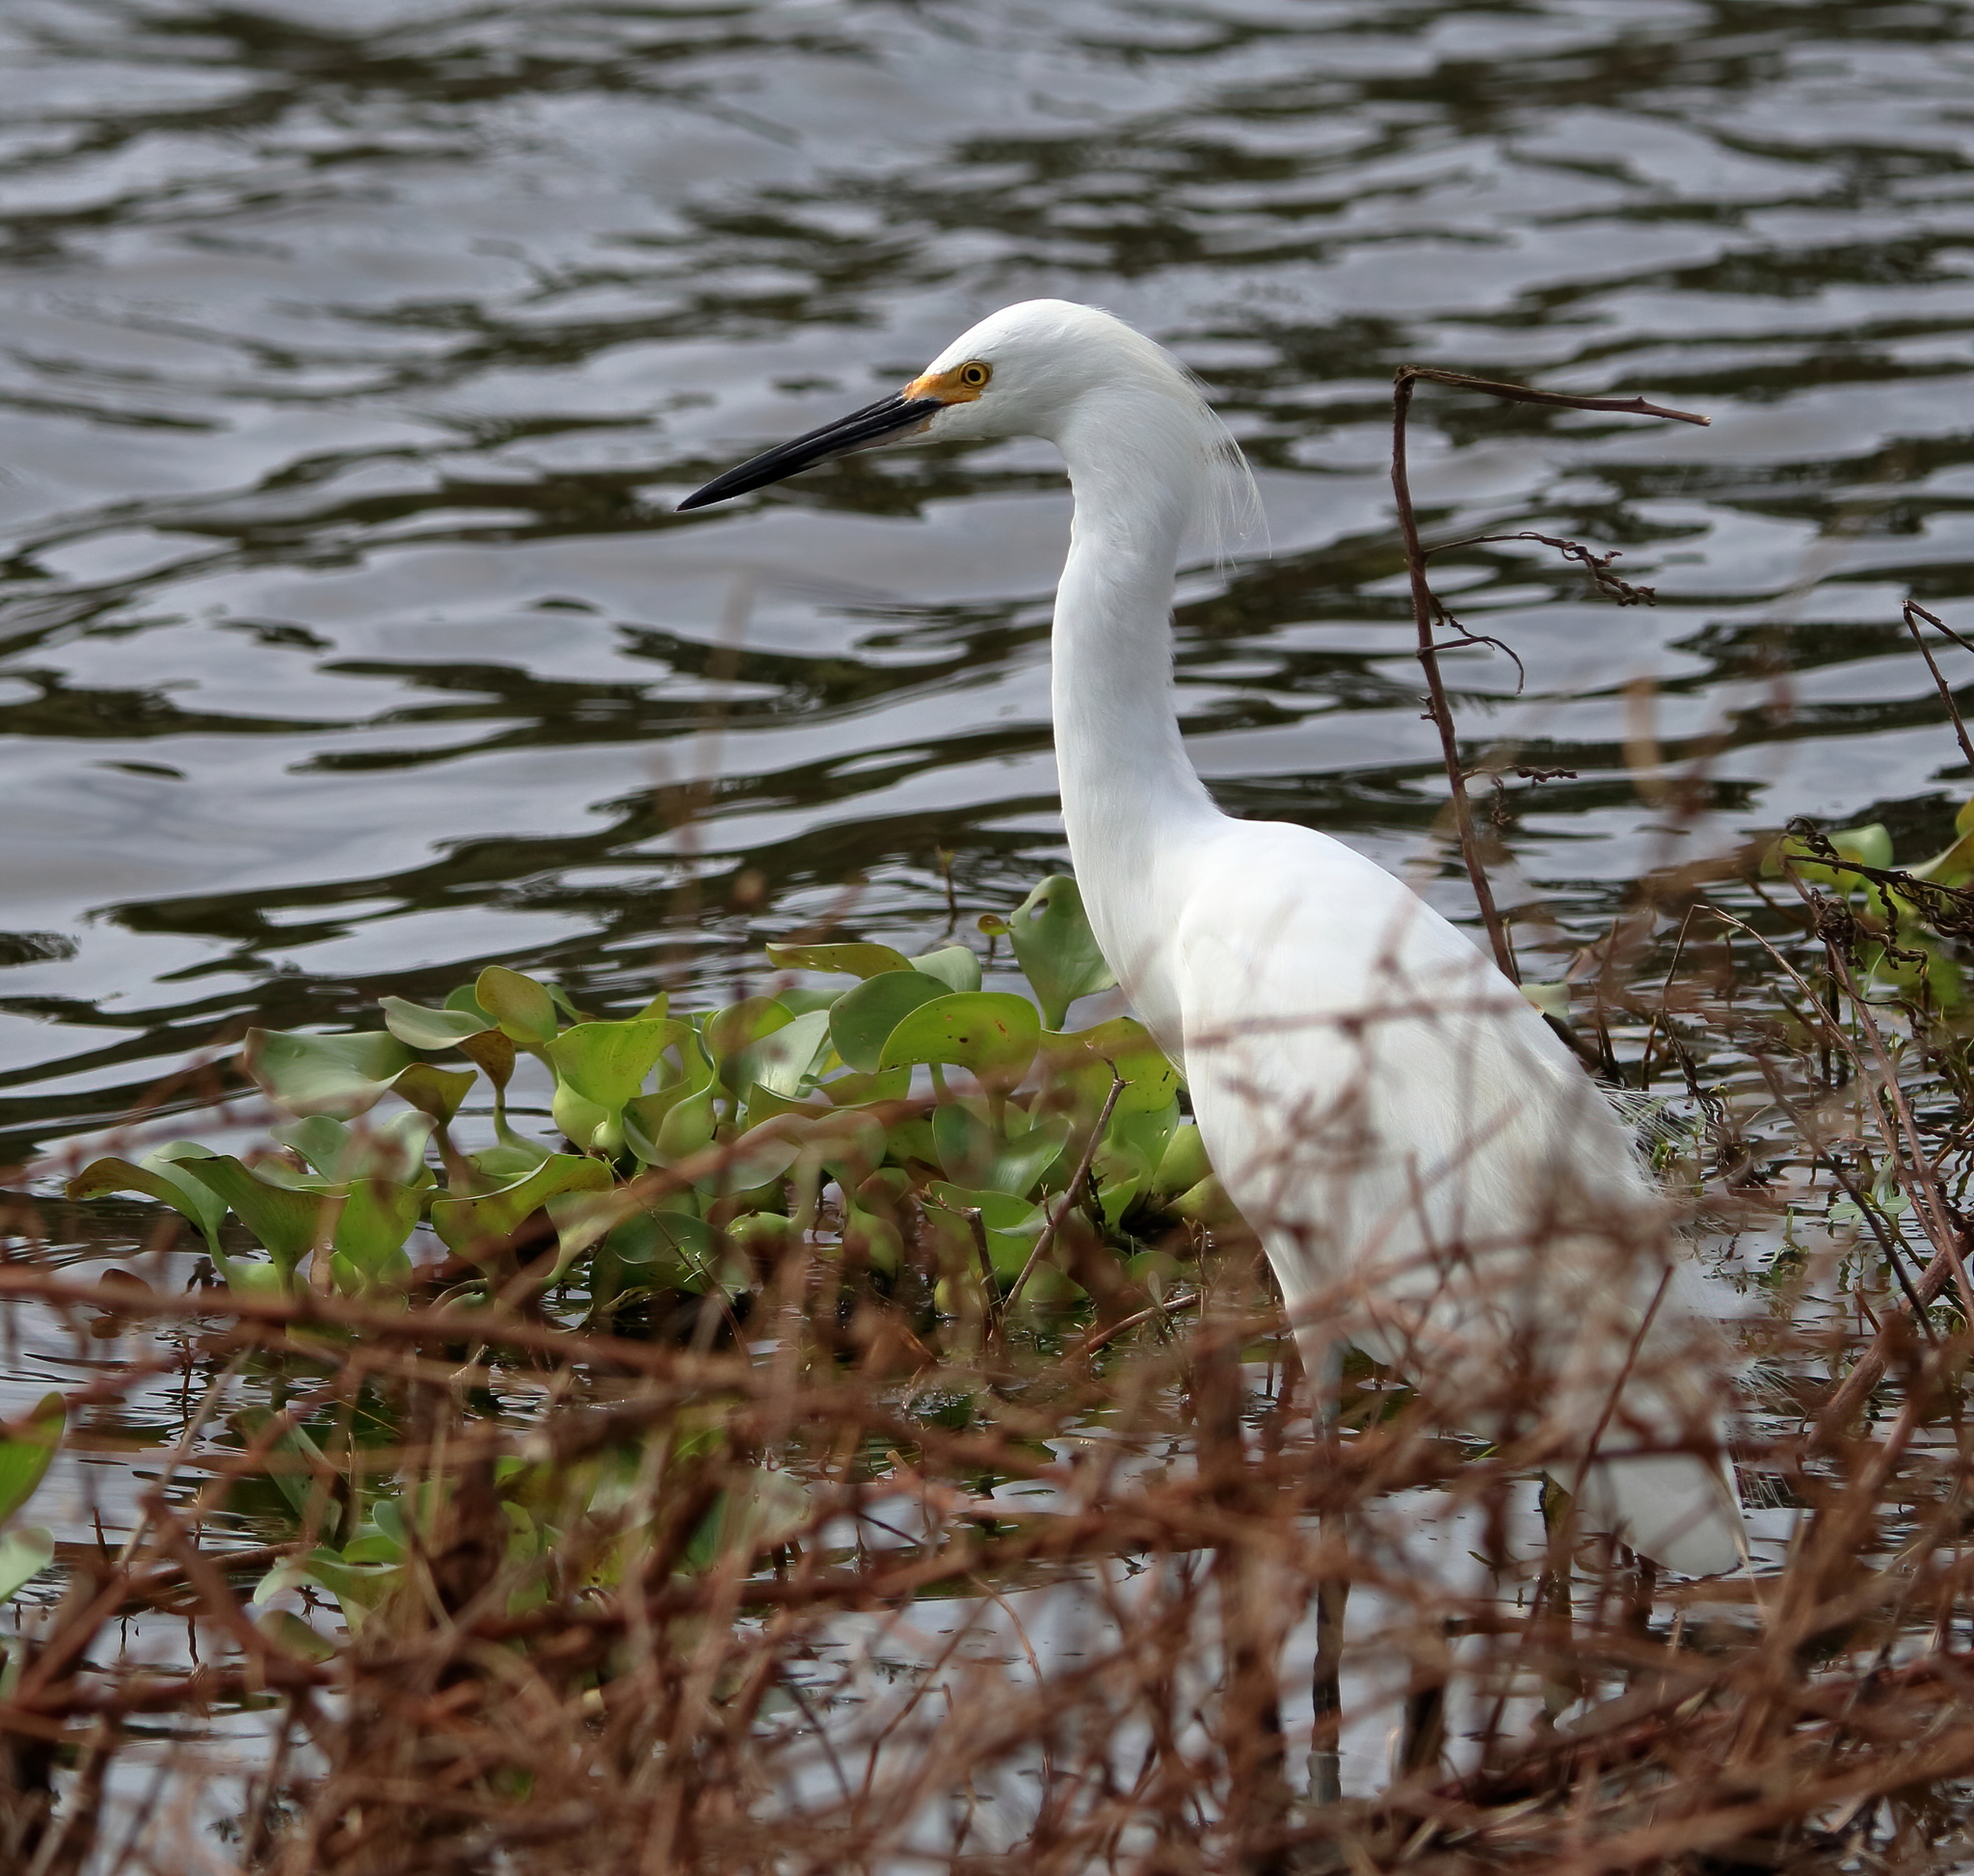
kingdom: Animalia
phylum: Chordata
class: Aves
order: Pelecaniformes
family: Ardeidae
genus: Egretta
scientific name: Egretta thula
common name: Snowy egret
